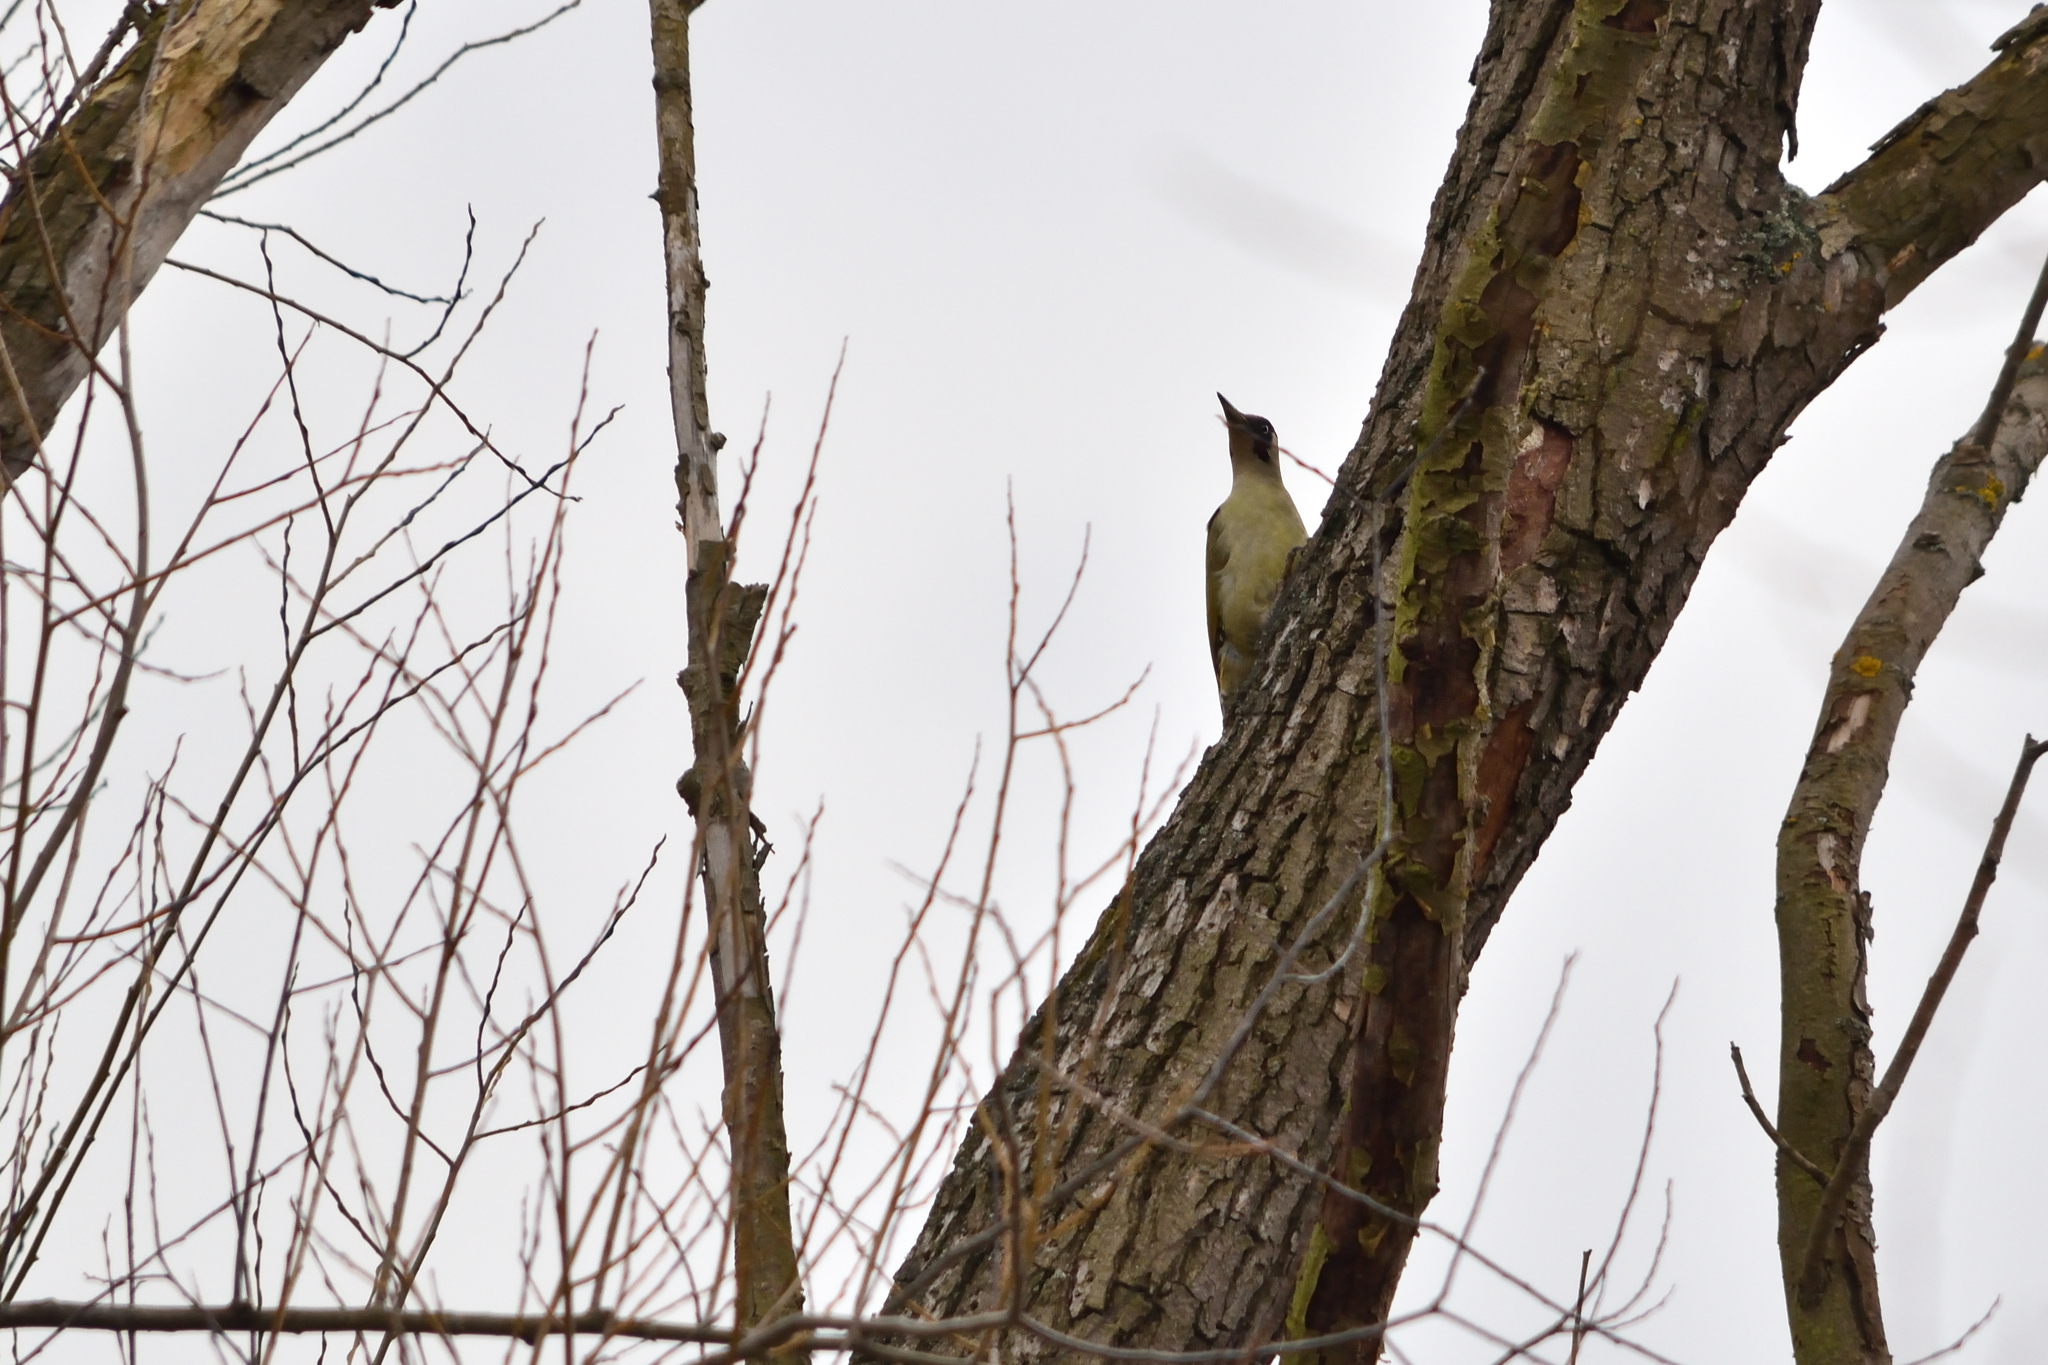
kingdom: Animalia
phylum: Chordata
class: Aves
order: Piciformes
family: Picidae
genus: Picus
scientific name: Picus viridis
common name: European green woodpecker
